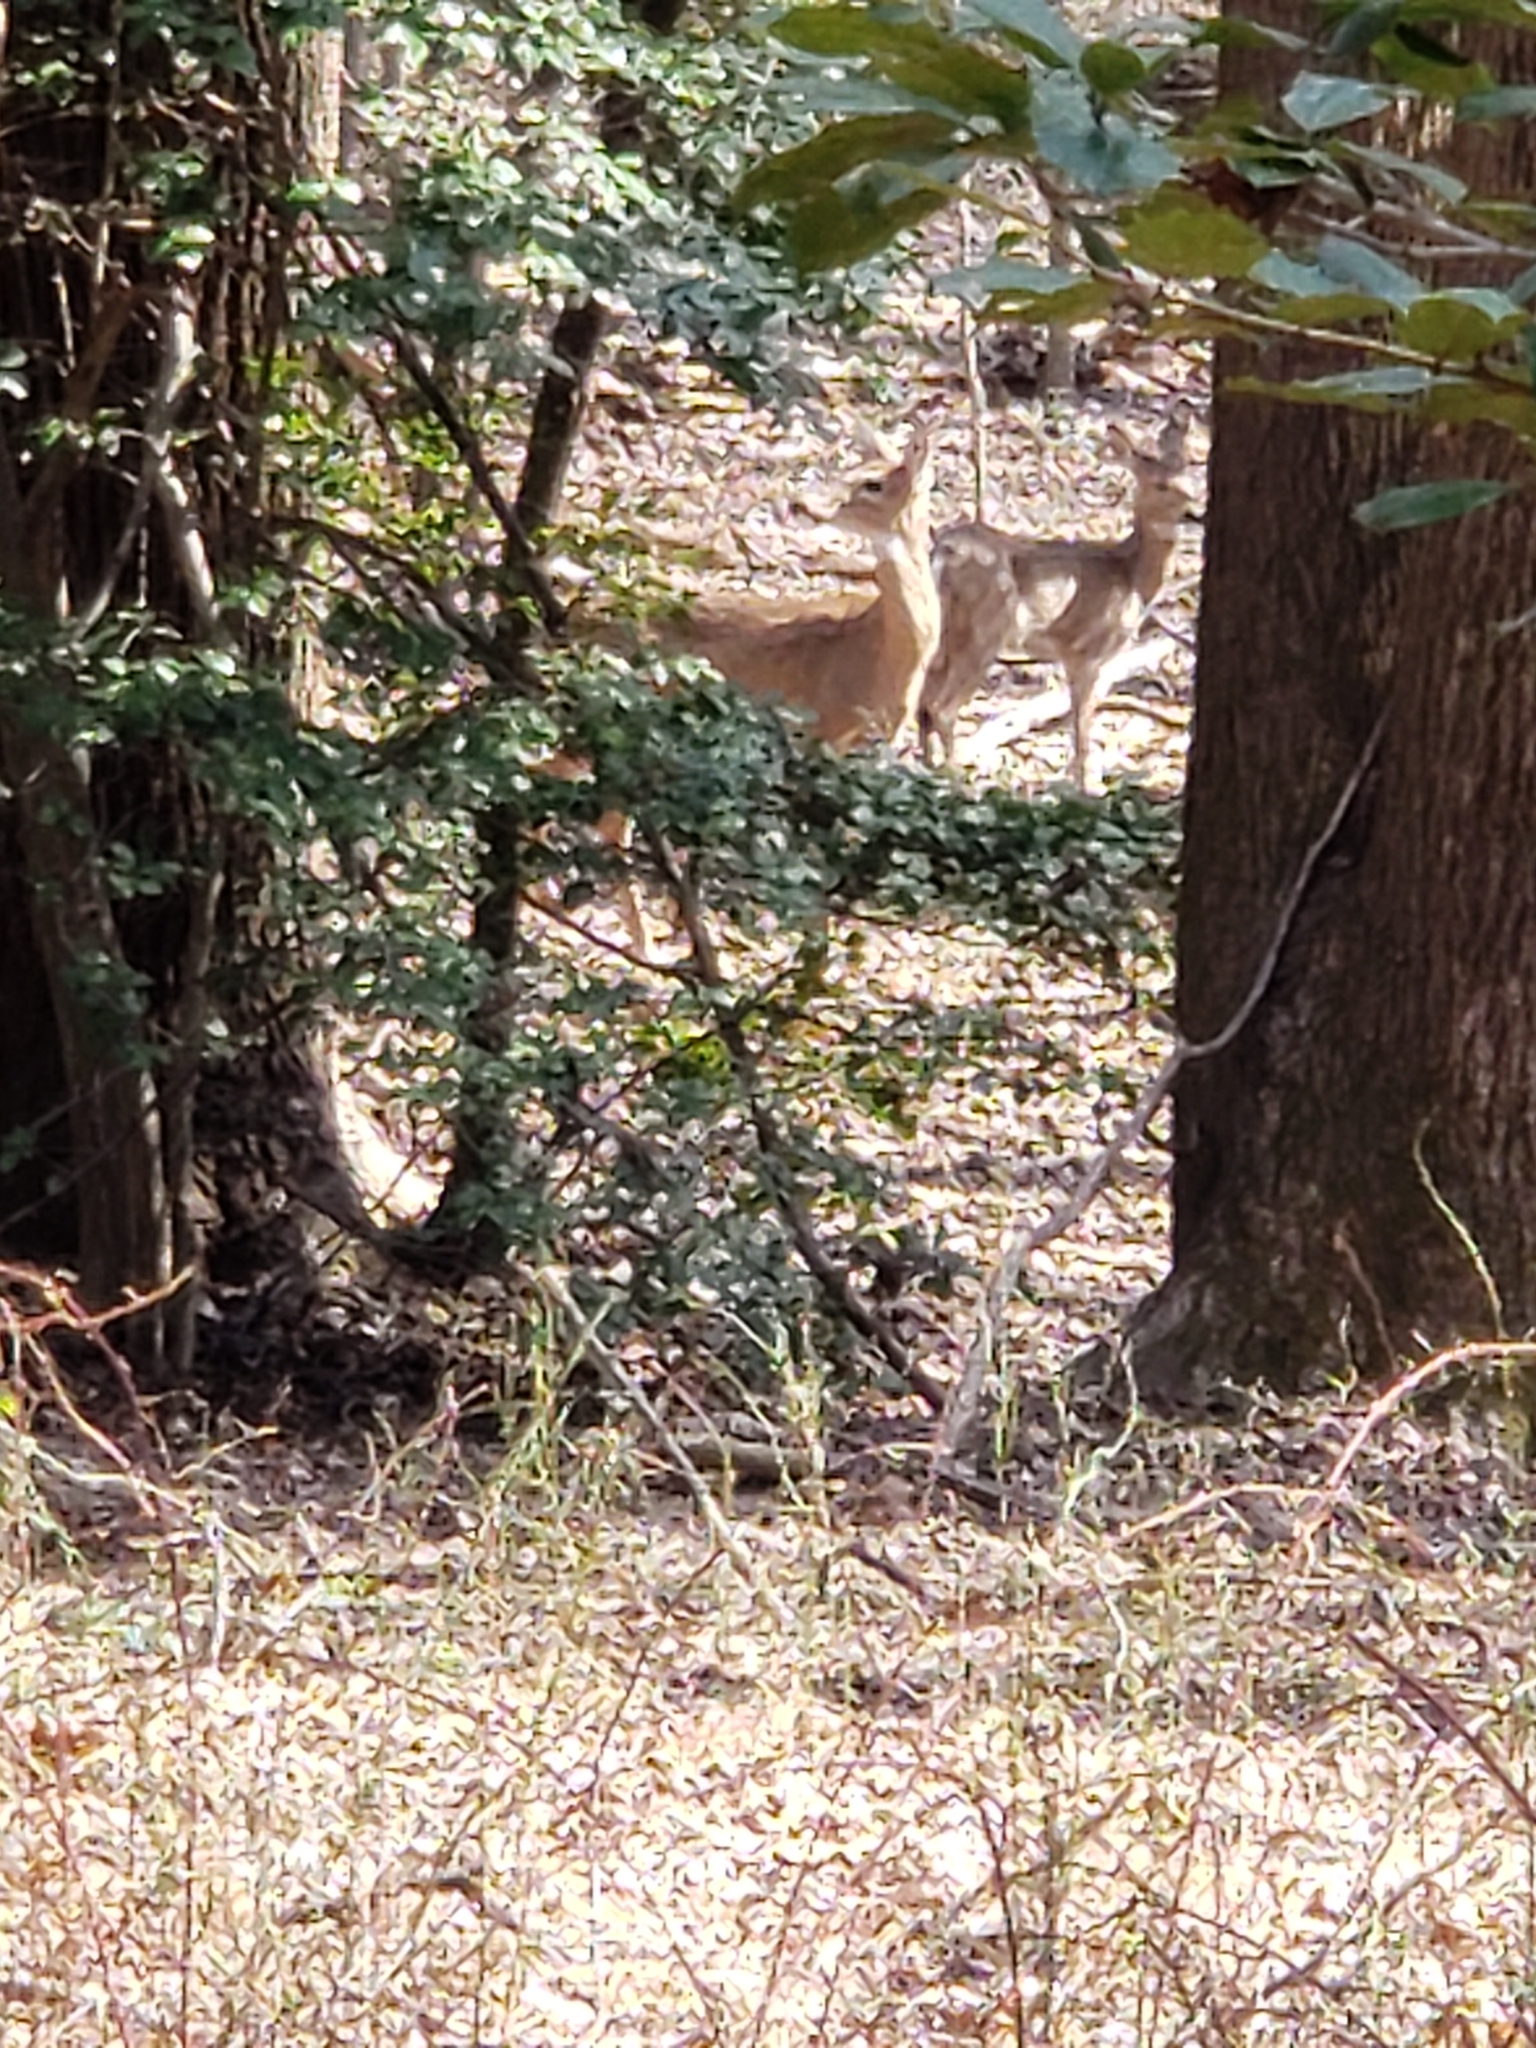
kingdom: Animalia
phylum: Chordata
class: Mammalia
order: Artiodactyla
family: Cervidae
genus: Odocoileus
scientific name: Odocoileus virginianus
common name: White-tailed deer
